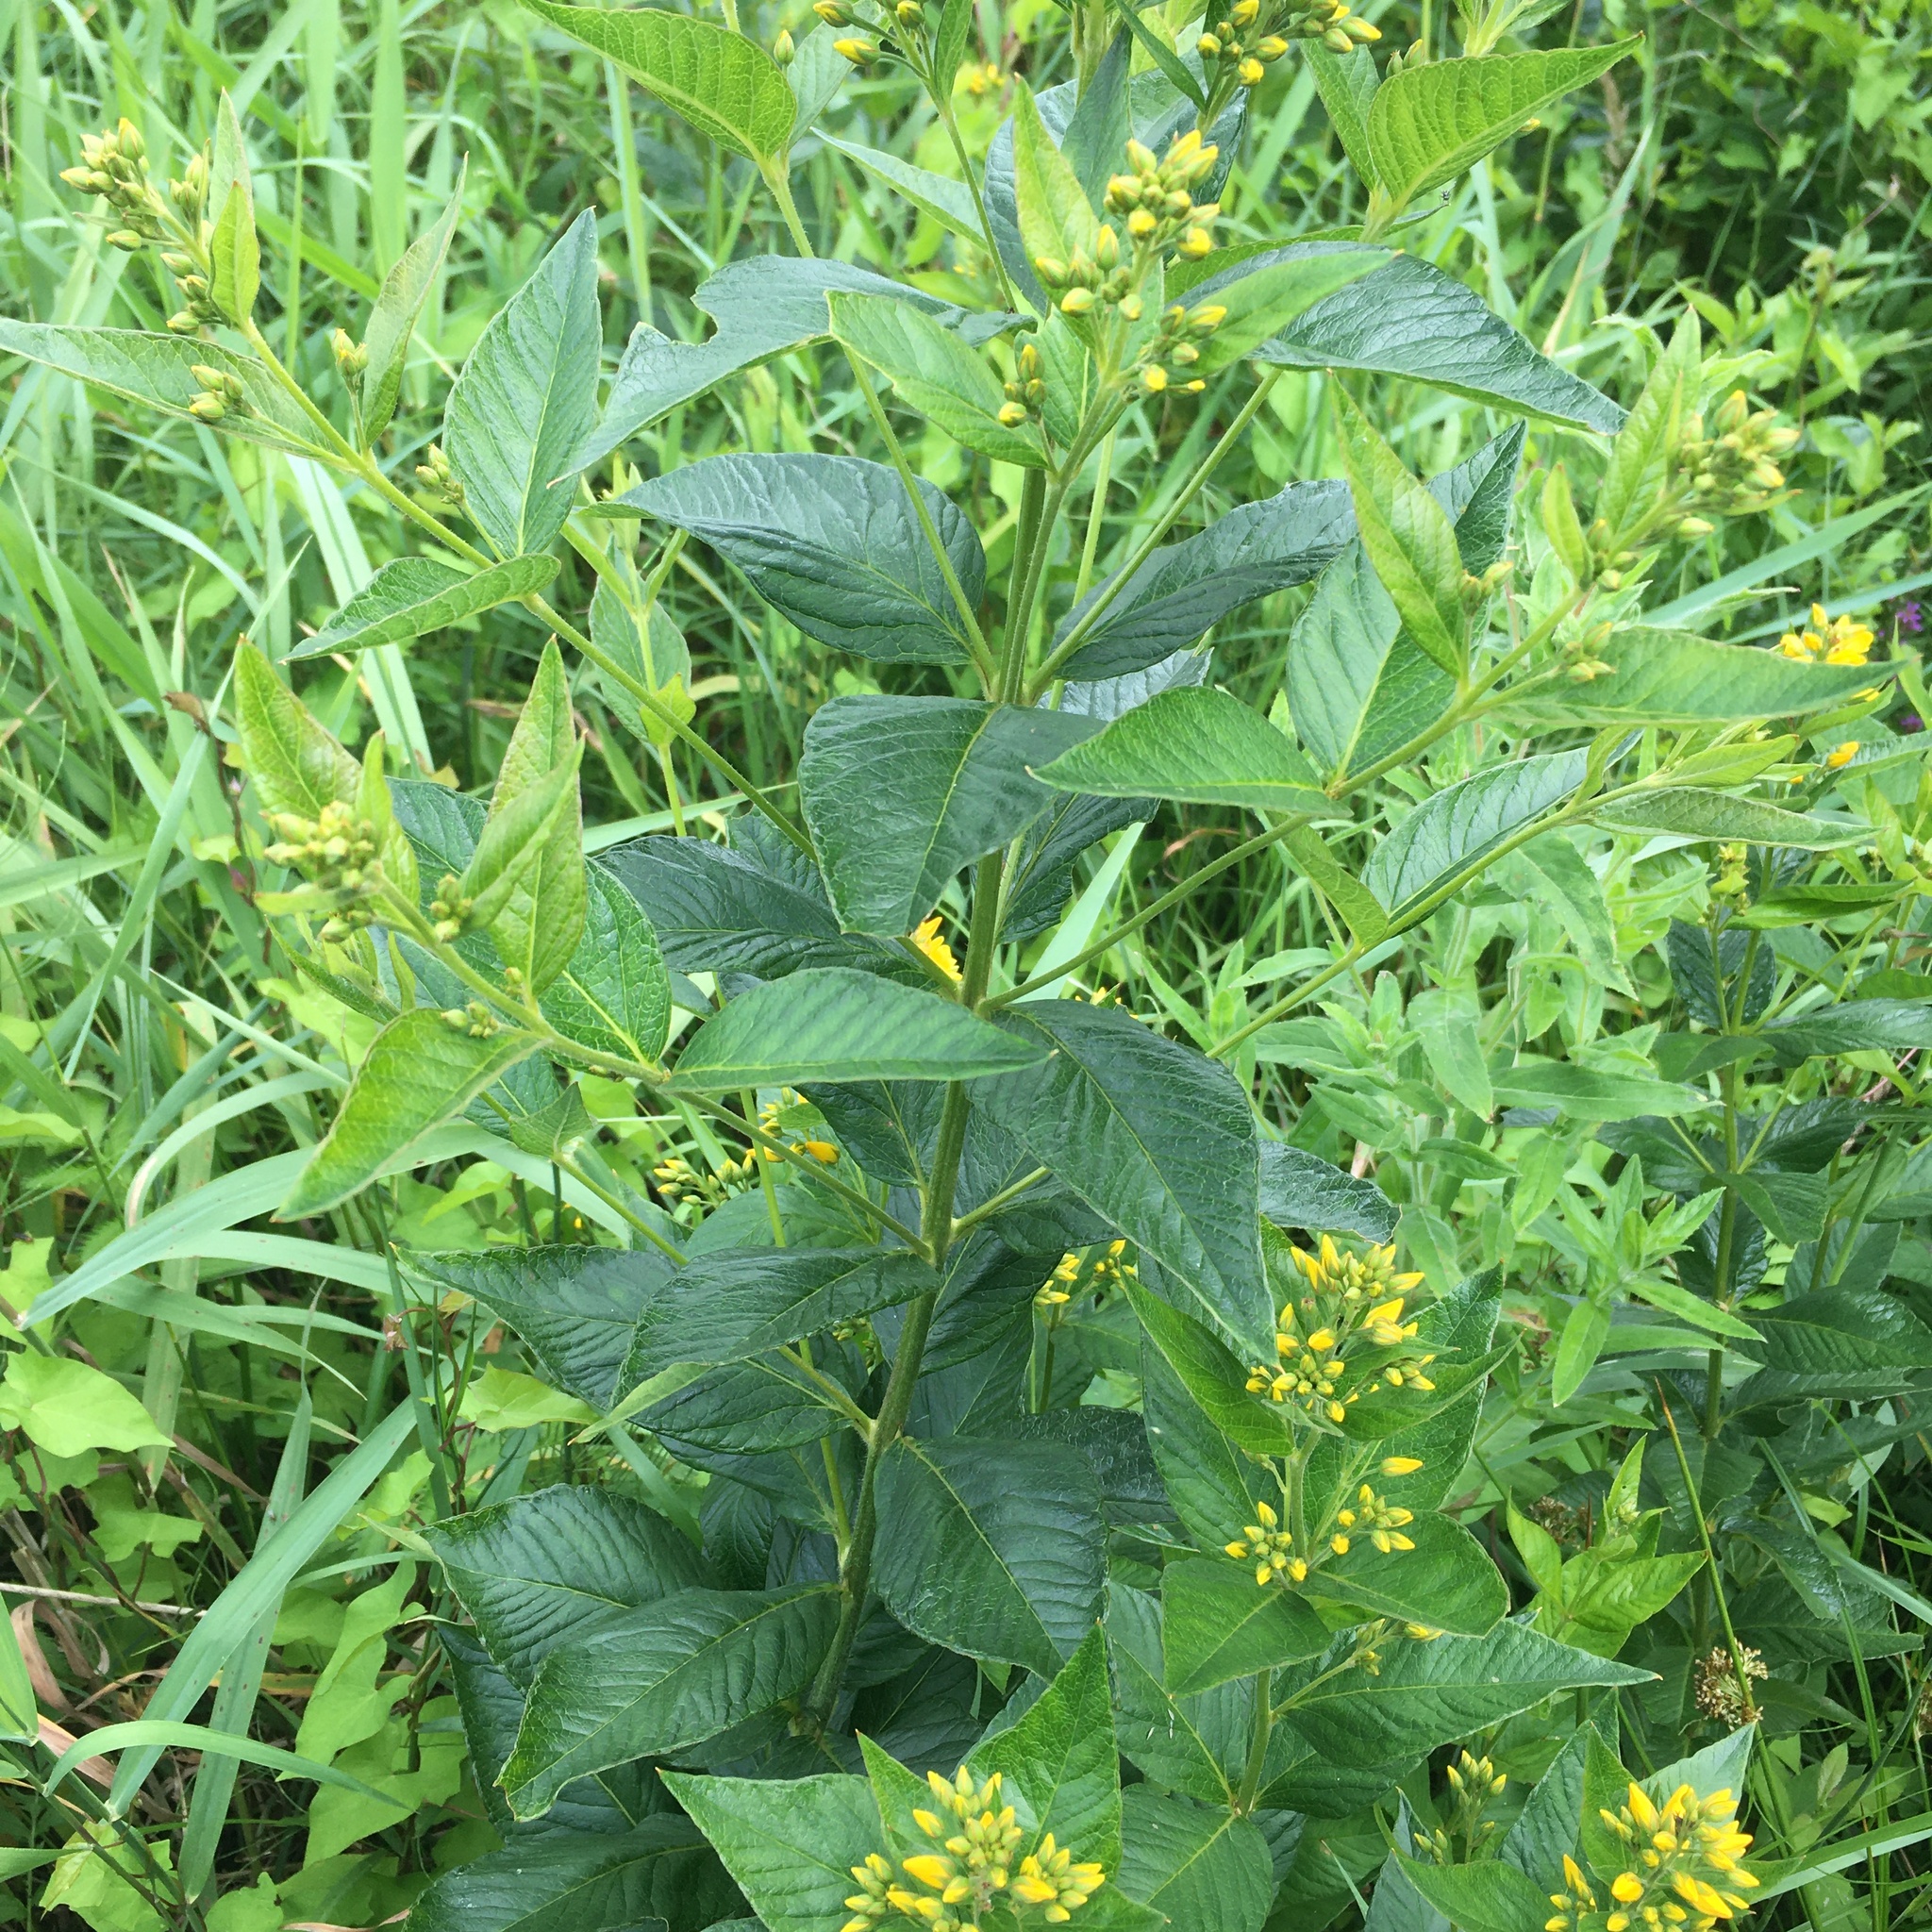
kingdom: Plantae
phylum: Tracheophyta
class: Magnoliopsida
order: Ericales
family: Primulaceae
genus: Lysimachia
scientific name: Lysimachia vulgaris
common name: Yellow loosestrife
